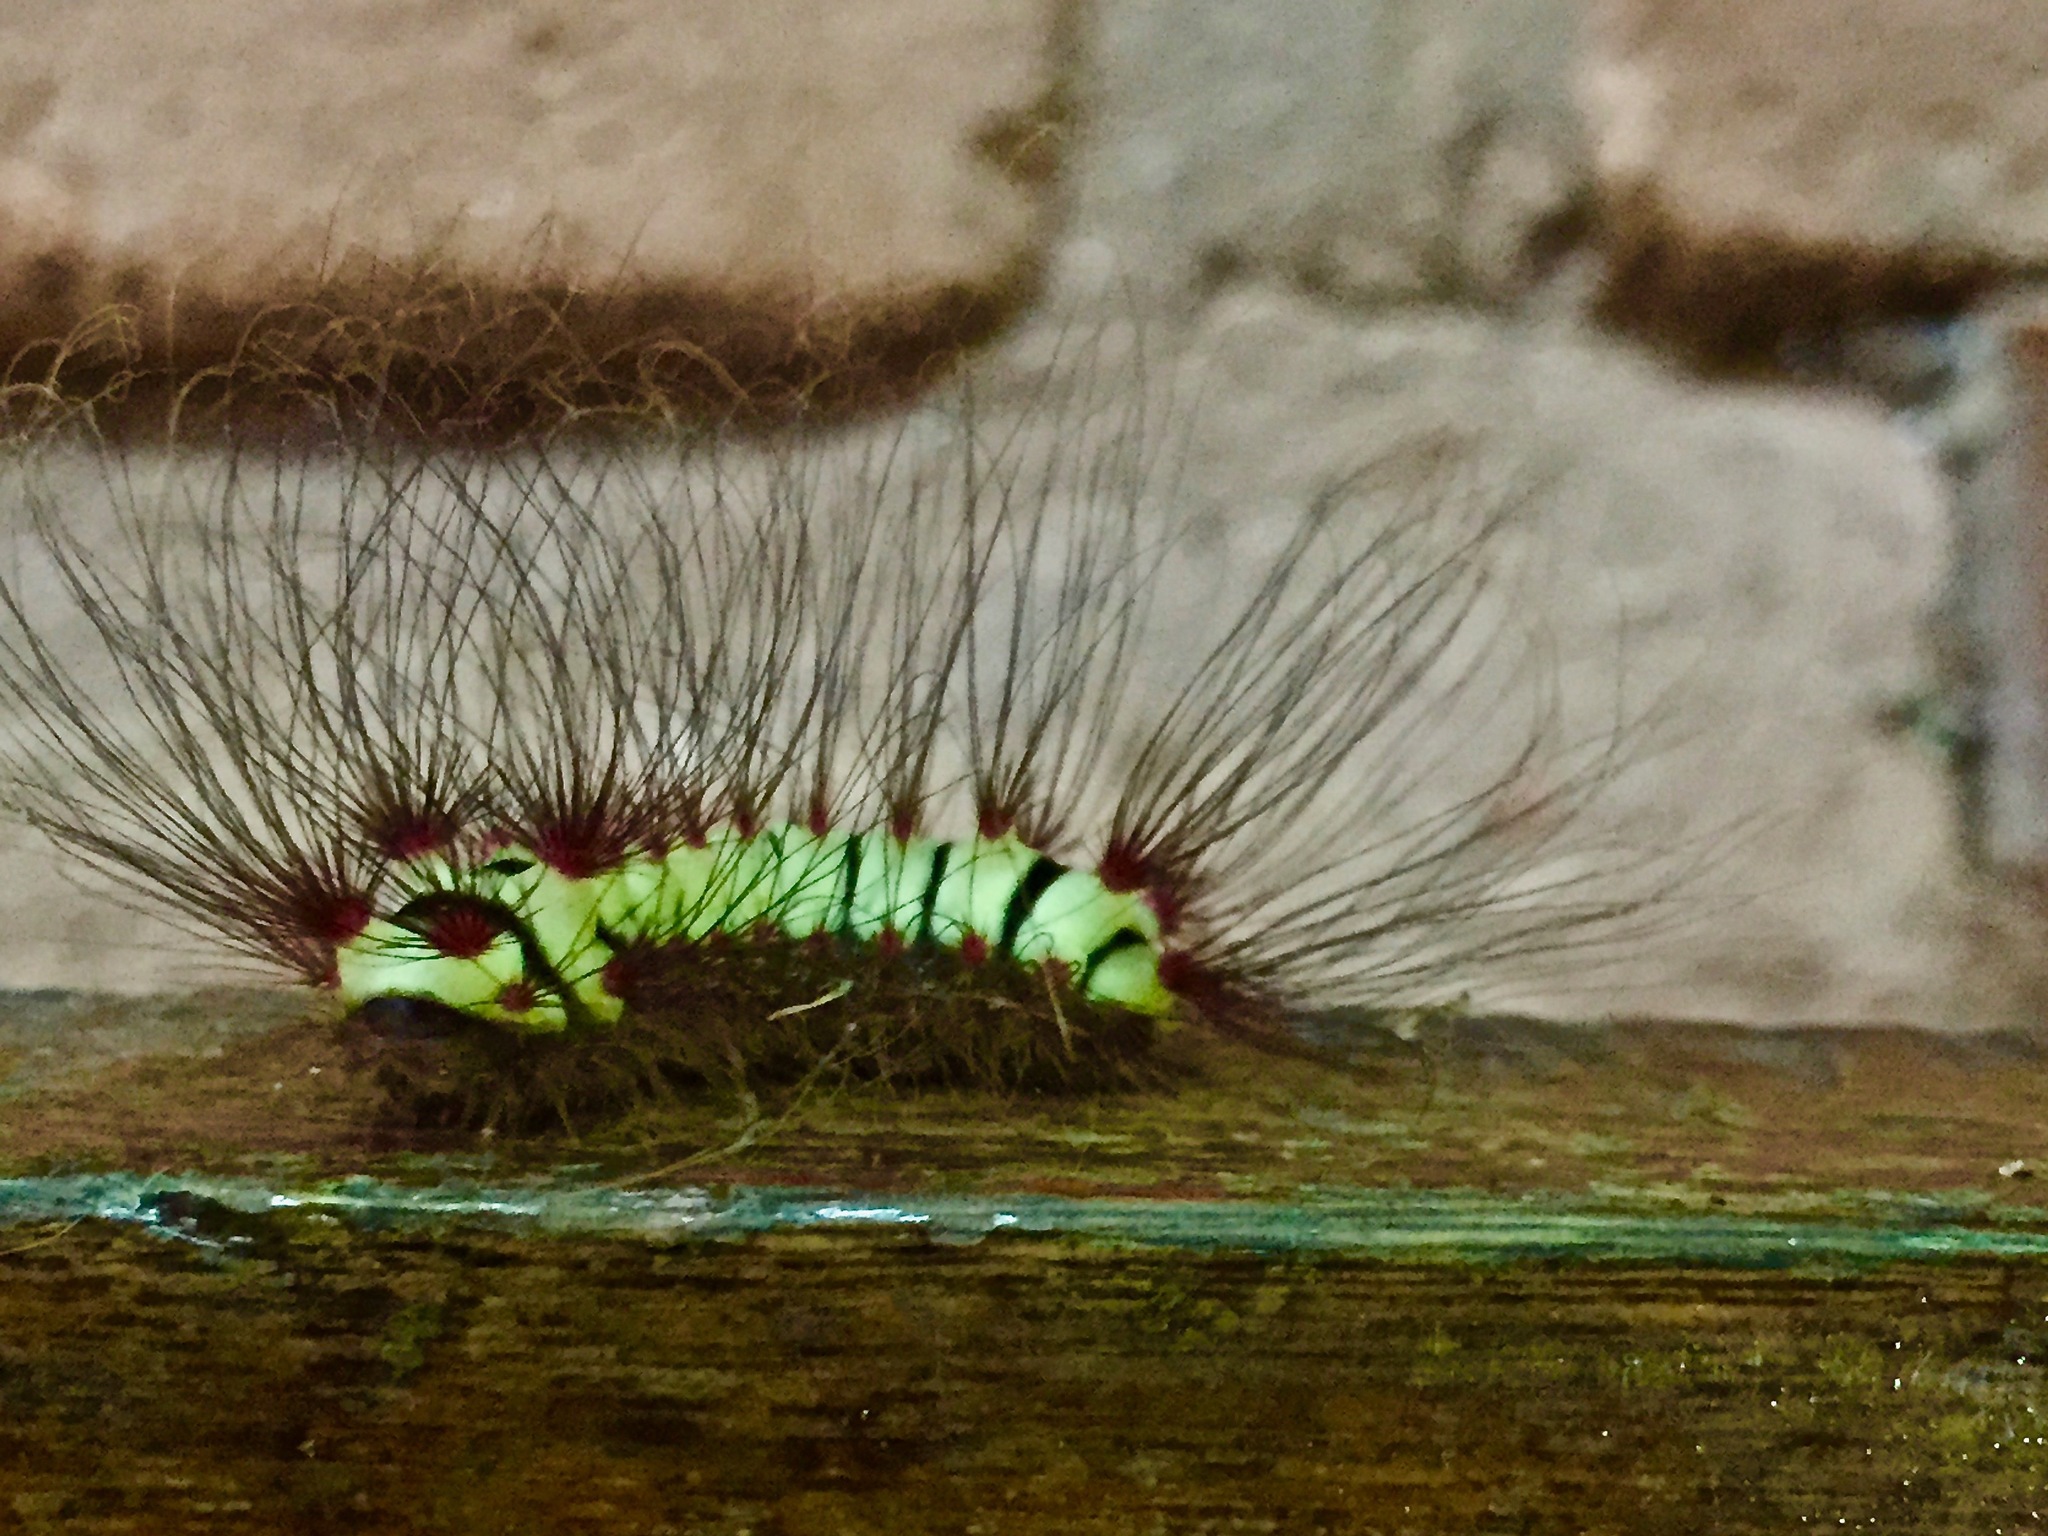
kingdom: Animalia
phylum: Arthropoda
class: Insecta
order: Lepidoptera
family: Megalopygidae
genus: Megalopyge
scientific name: Megalopyge lanata
